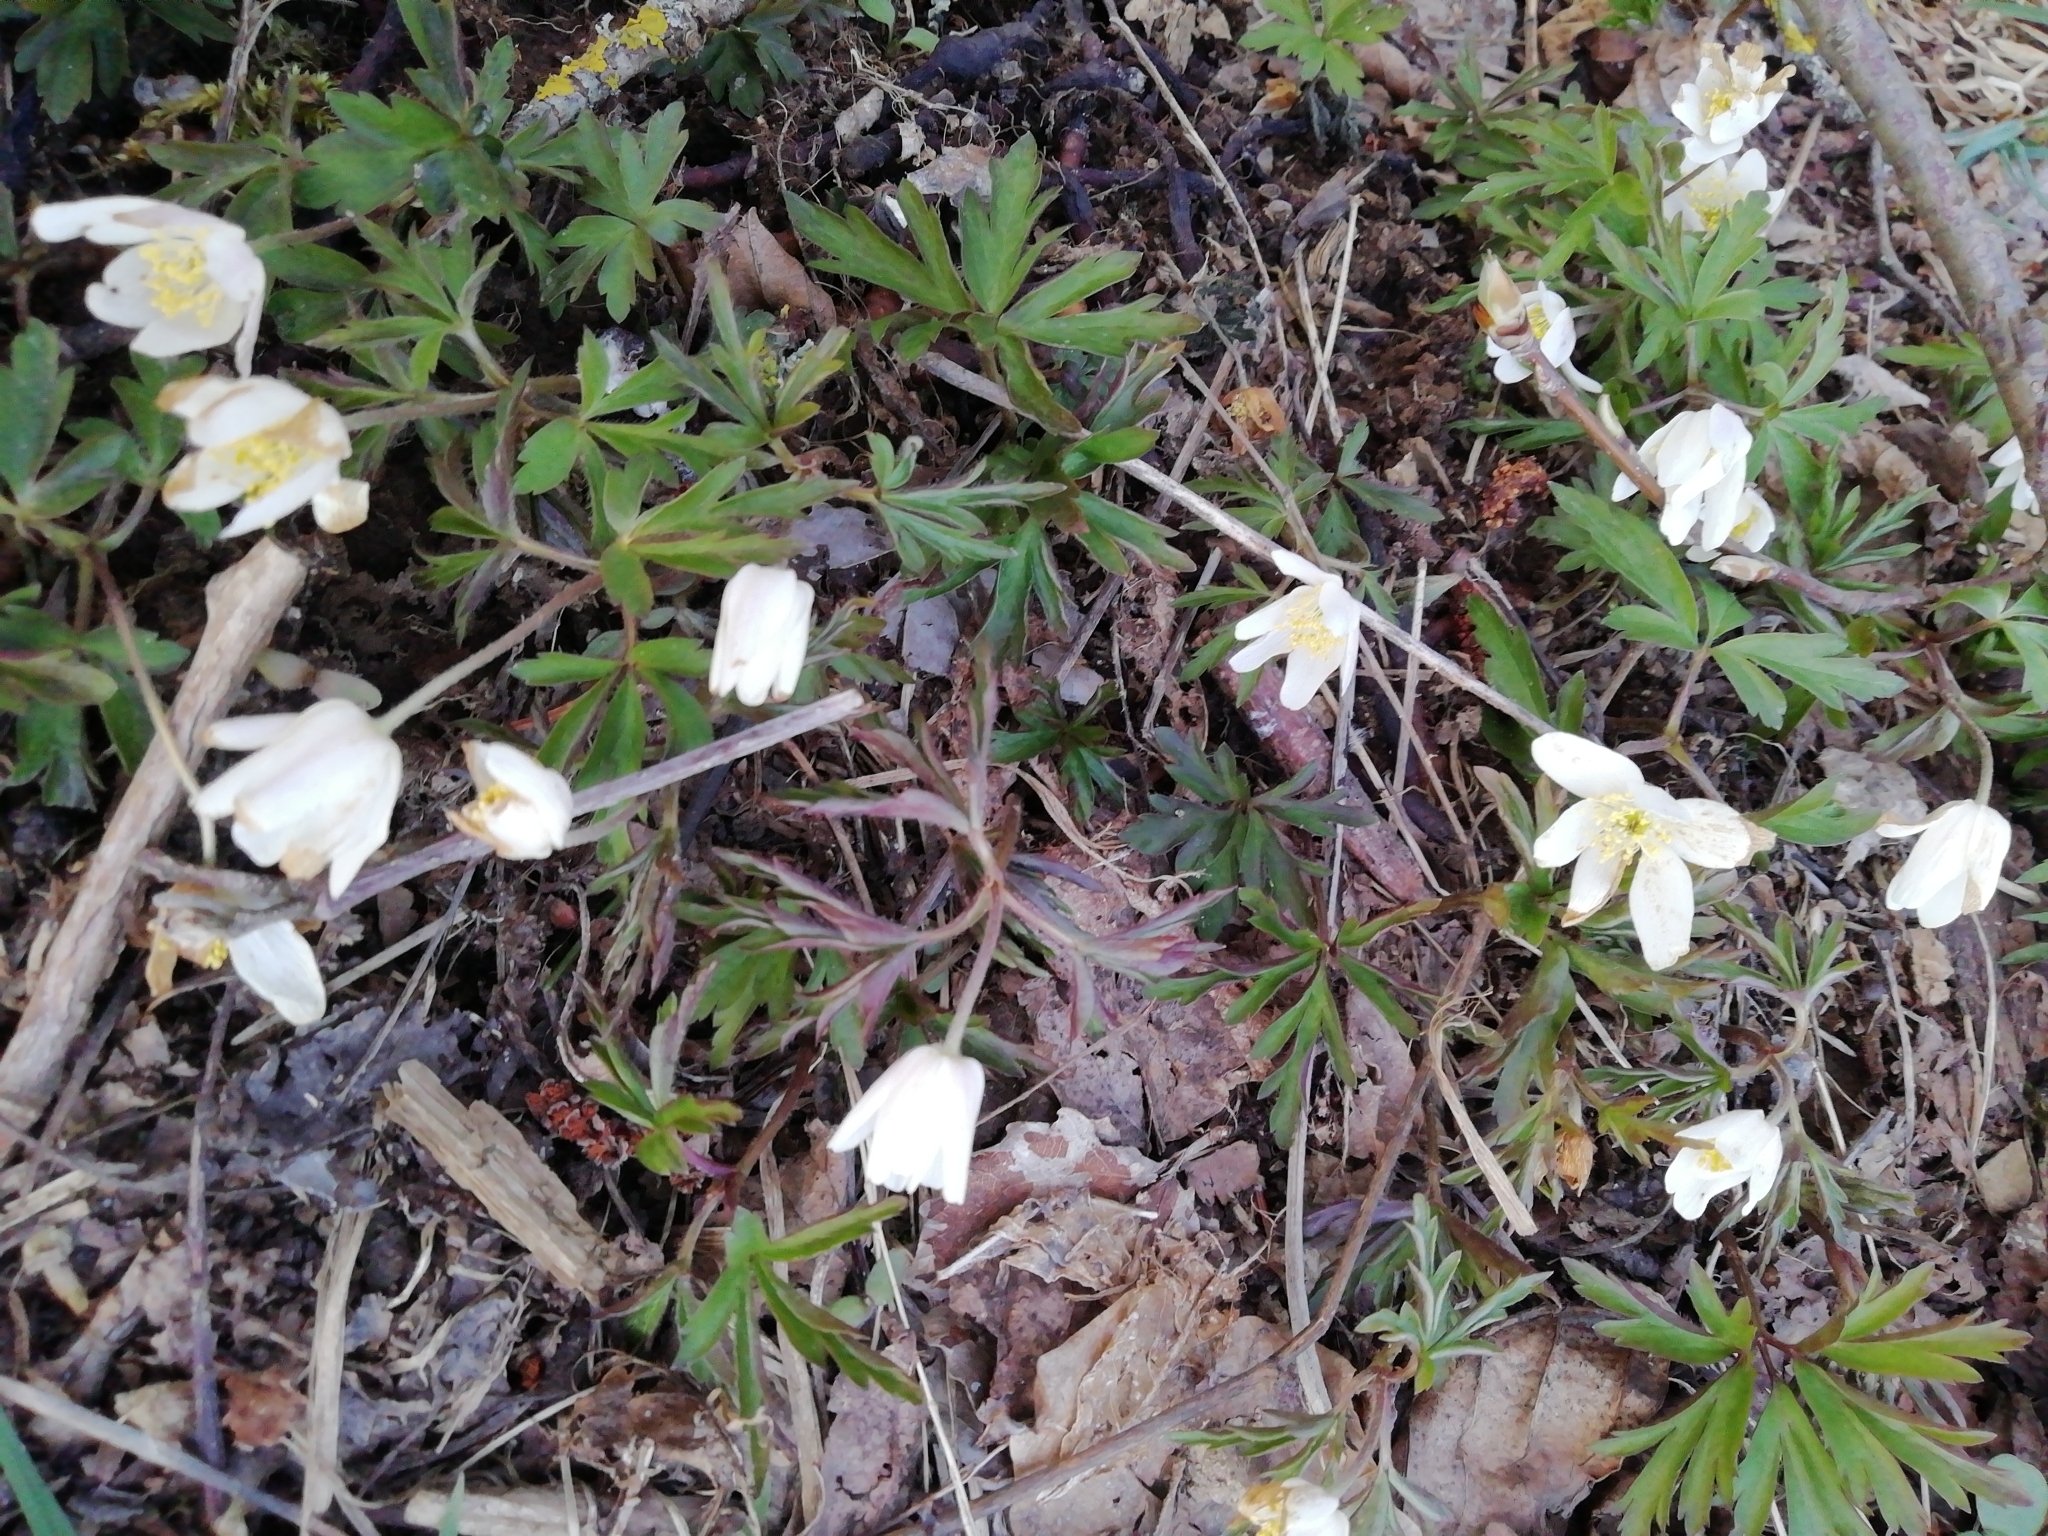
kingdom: Plantae
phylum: Tracheophyta
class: Magnoliopsida
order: Ranunculales
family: Ranunculaceae
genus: Anemone
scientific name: Anemone nemorosa
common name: Wood anemone
